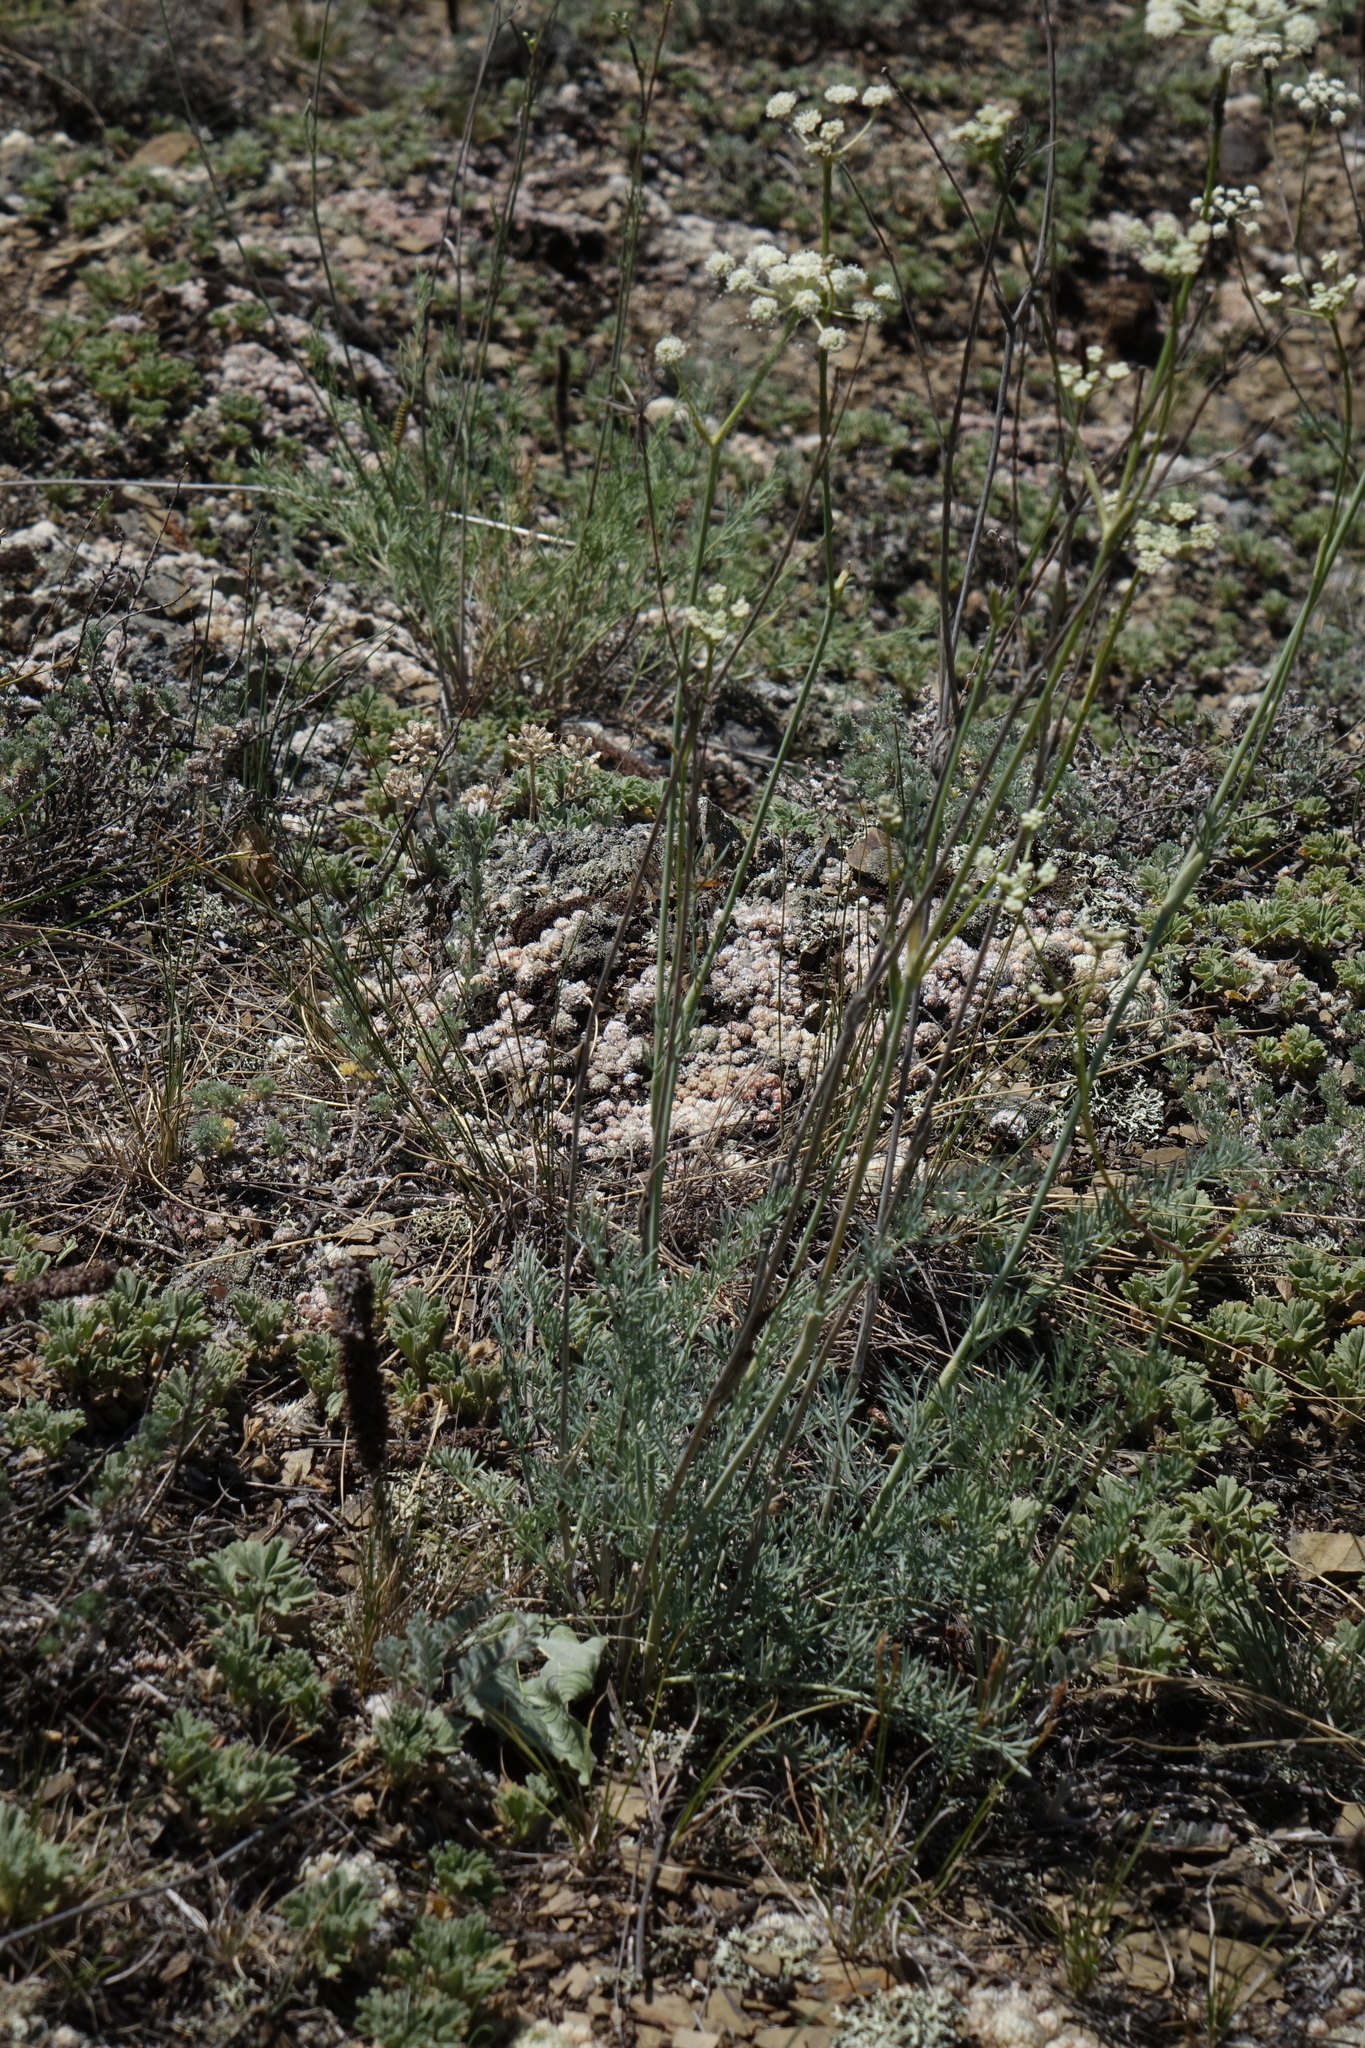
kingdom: Plantae
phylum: Tracheophyta
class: Magnoliopsida
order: Apiales
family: Apiaceae
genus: Seseli
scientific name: Seseli ledebourii
